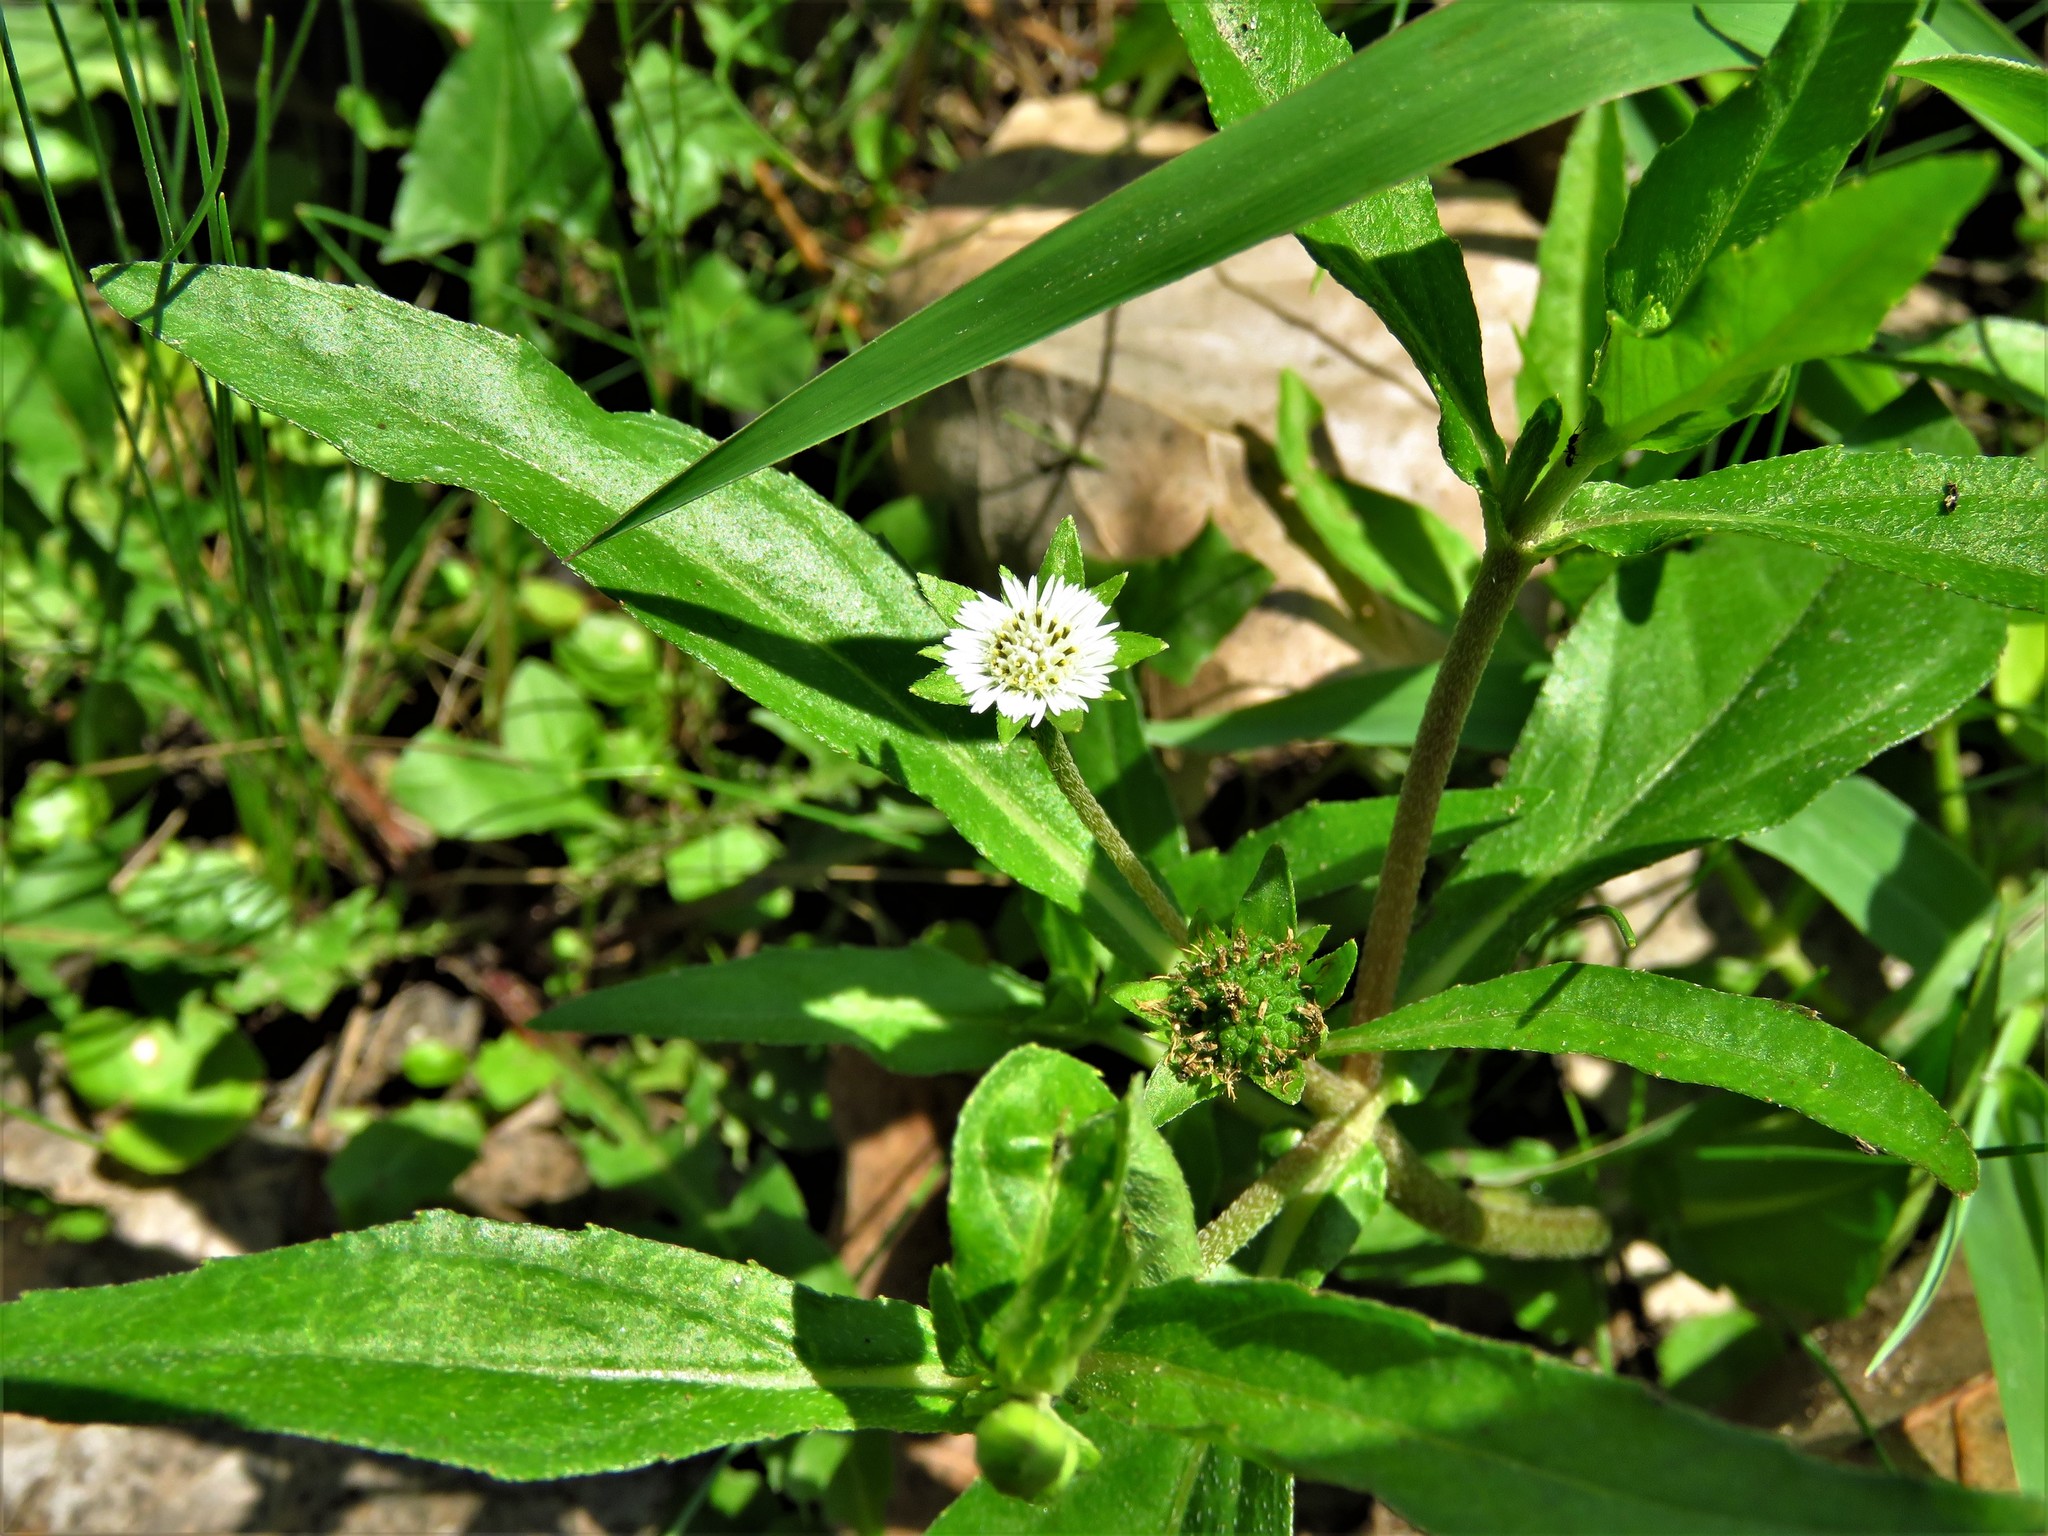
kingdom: Plantae
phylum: Tracheophyta
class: Magnoliopsida
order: Asterales
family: Asteraceae
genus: Eclipta
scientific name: Eclipta prostrata
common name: False daisy
